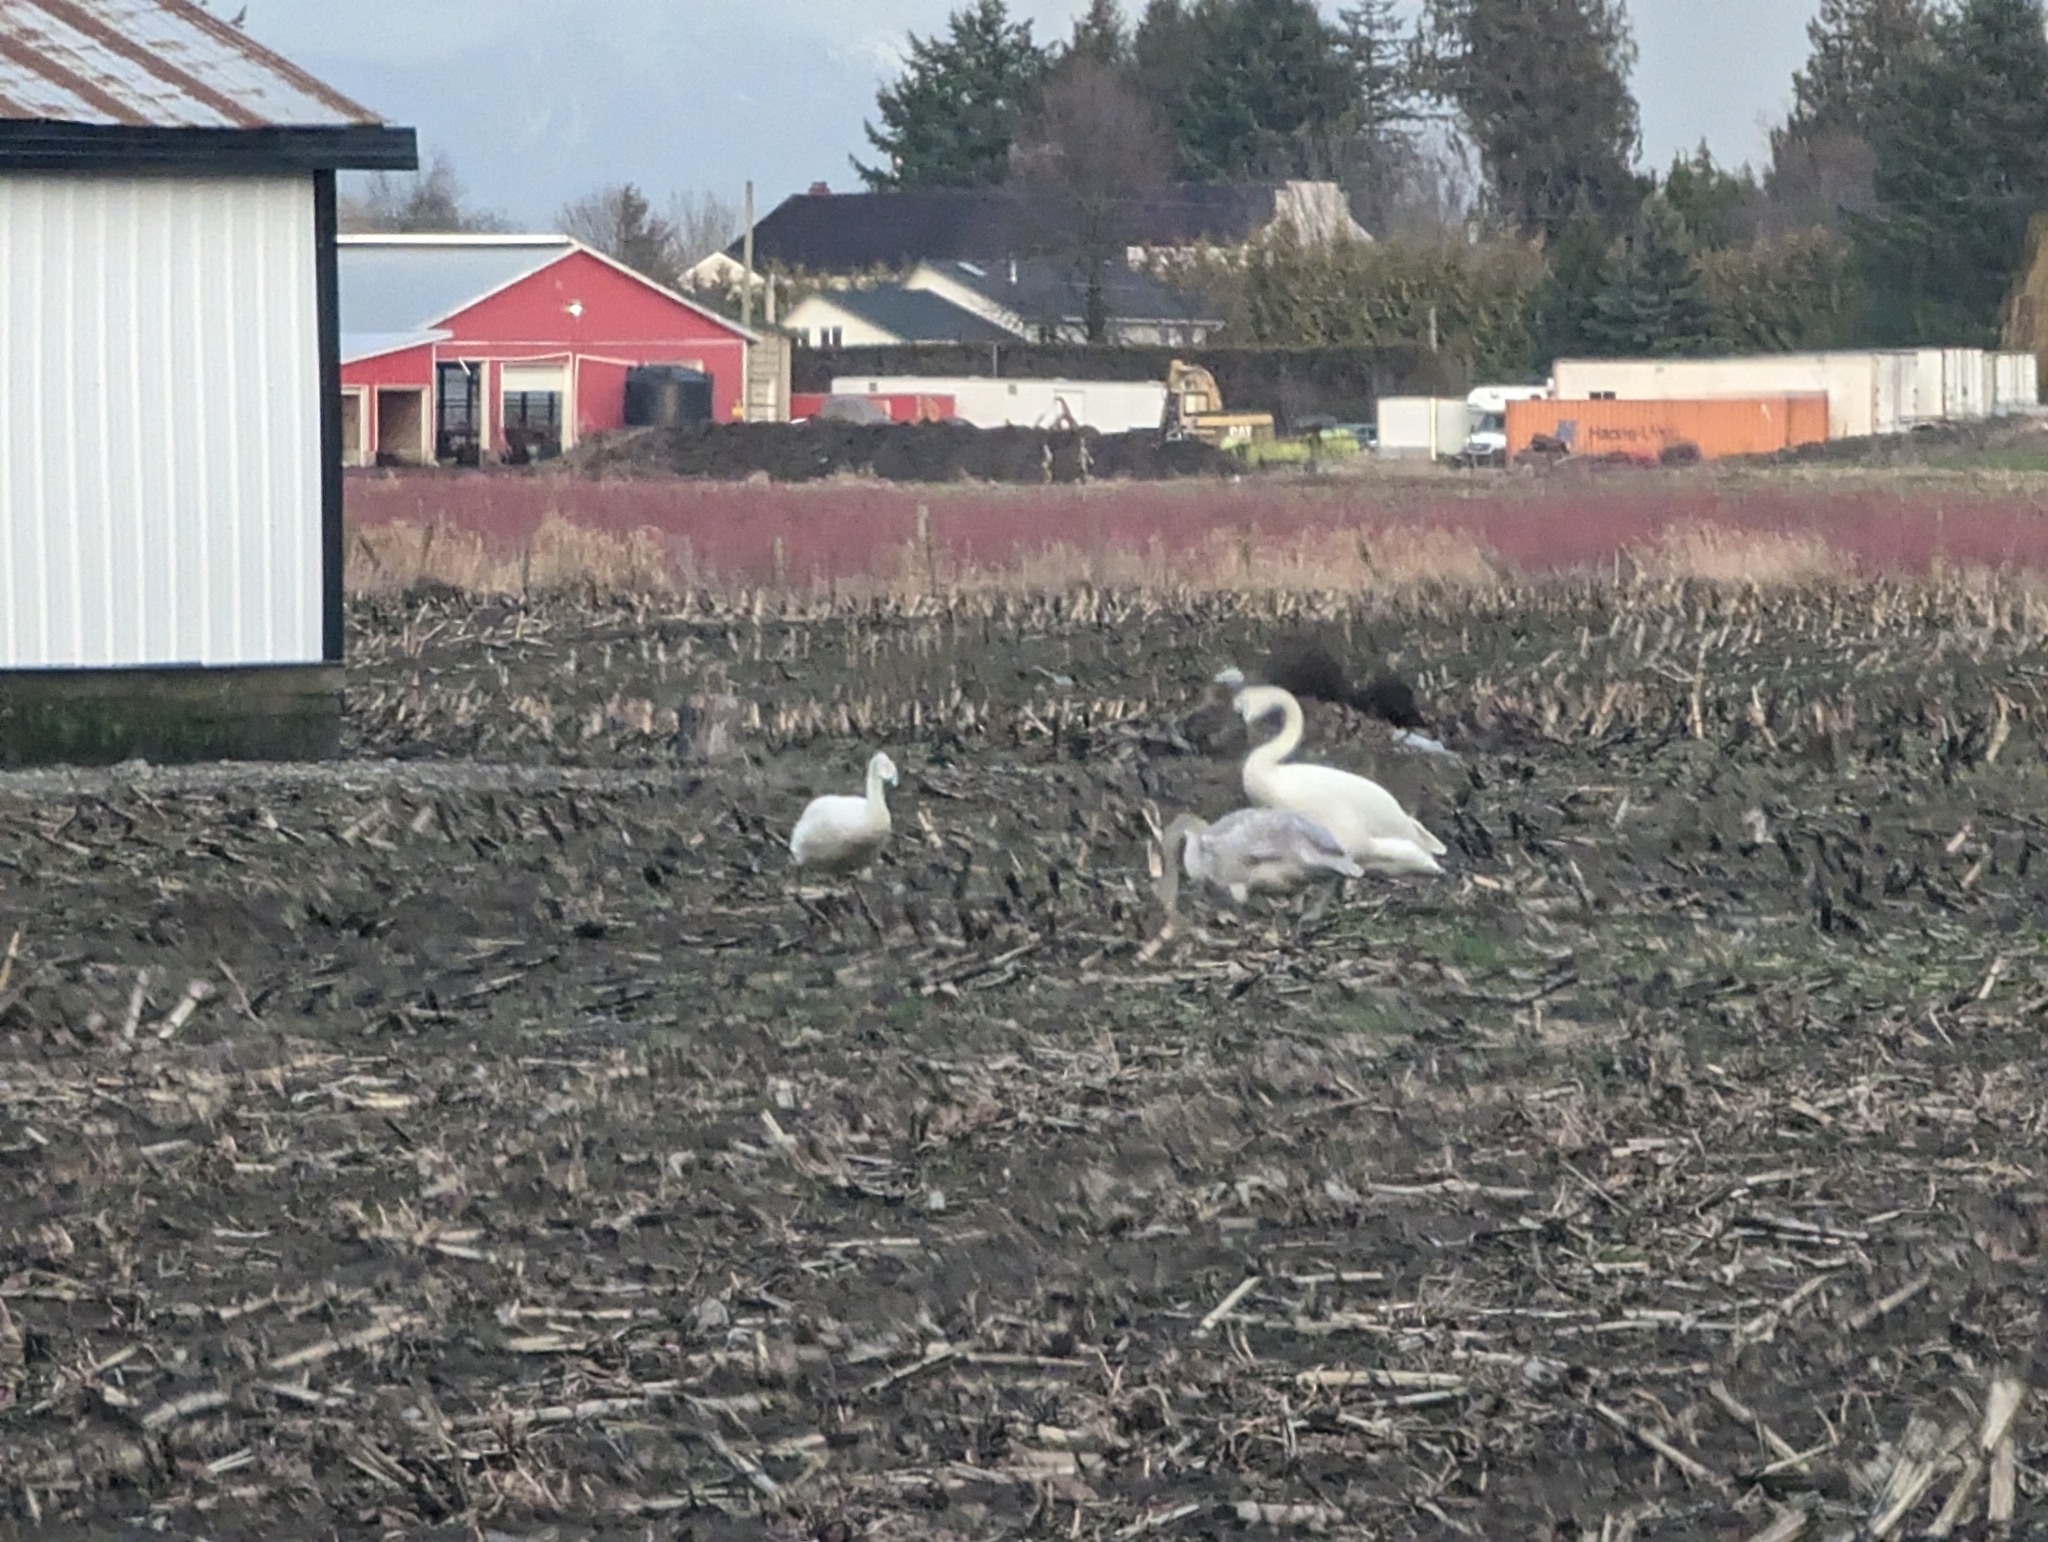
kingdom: Animalia
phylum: Chordata
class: Aves
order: Anseriformes
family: Anatidae
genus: Cygnus
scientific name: Cygnus buccinator
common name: Trumpeter swan
